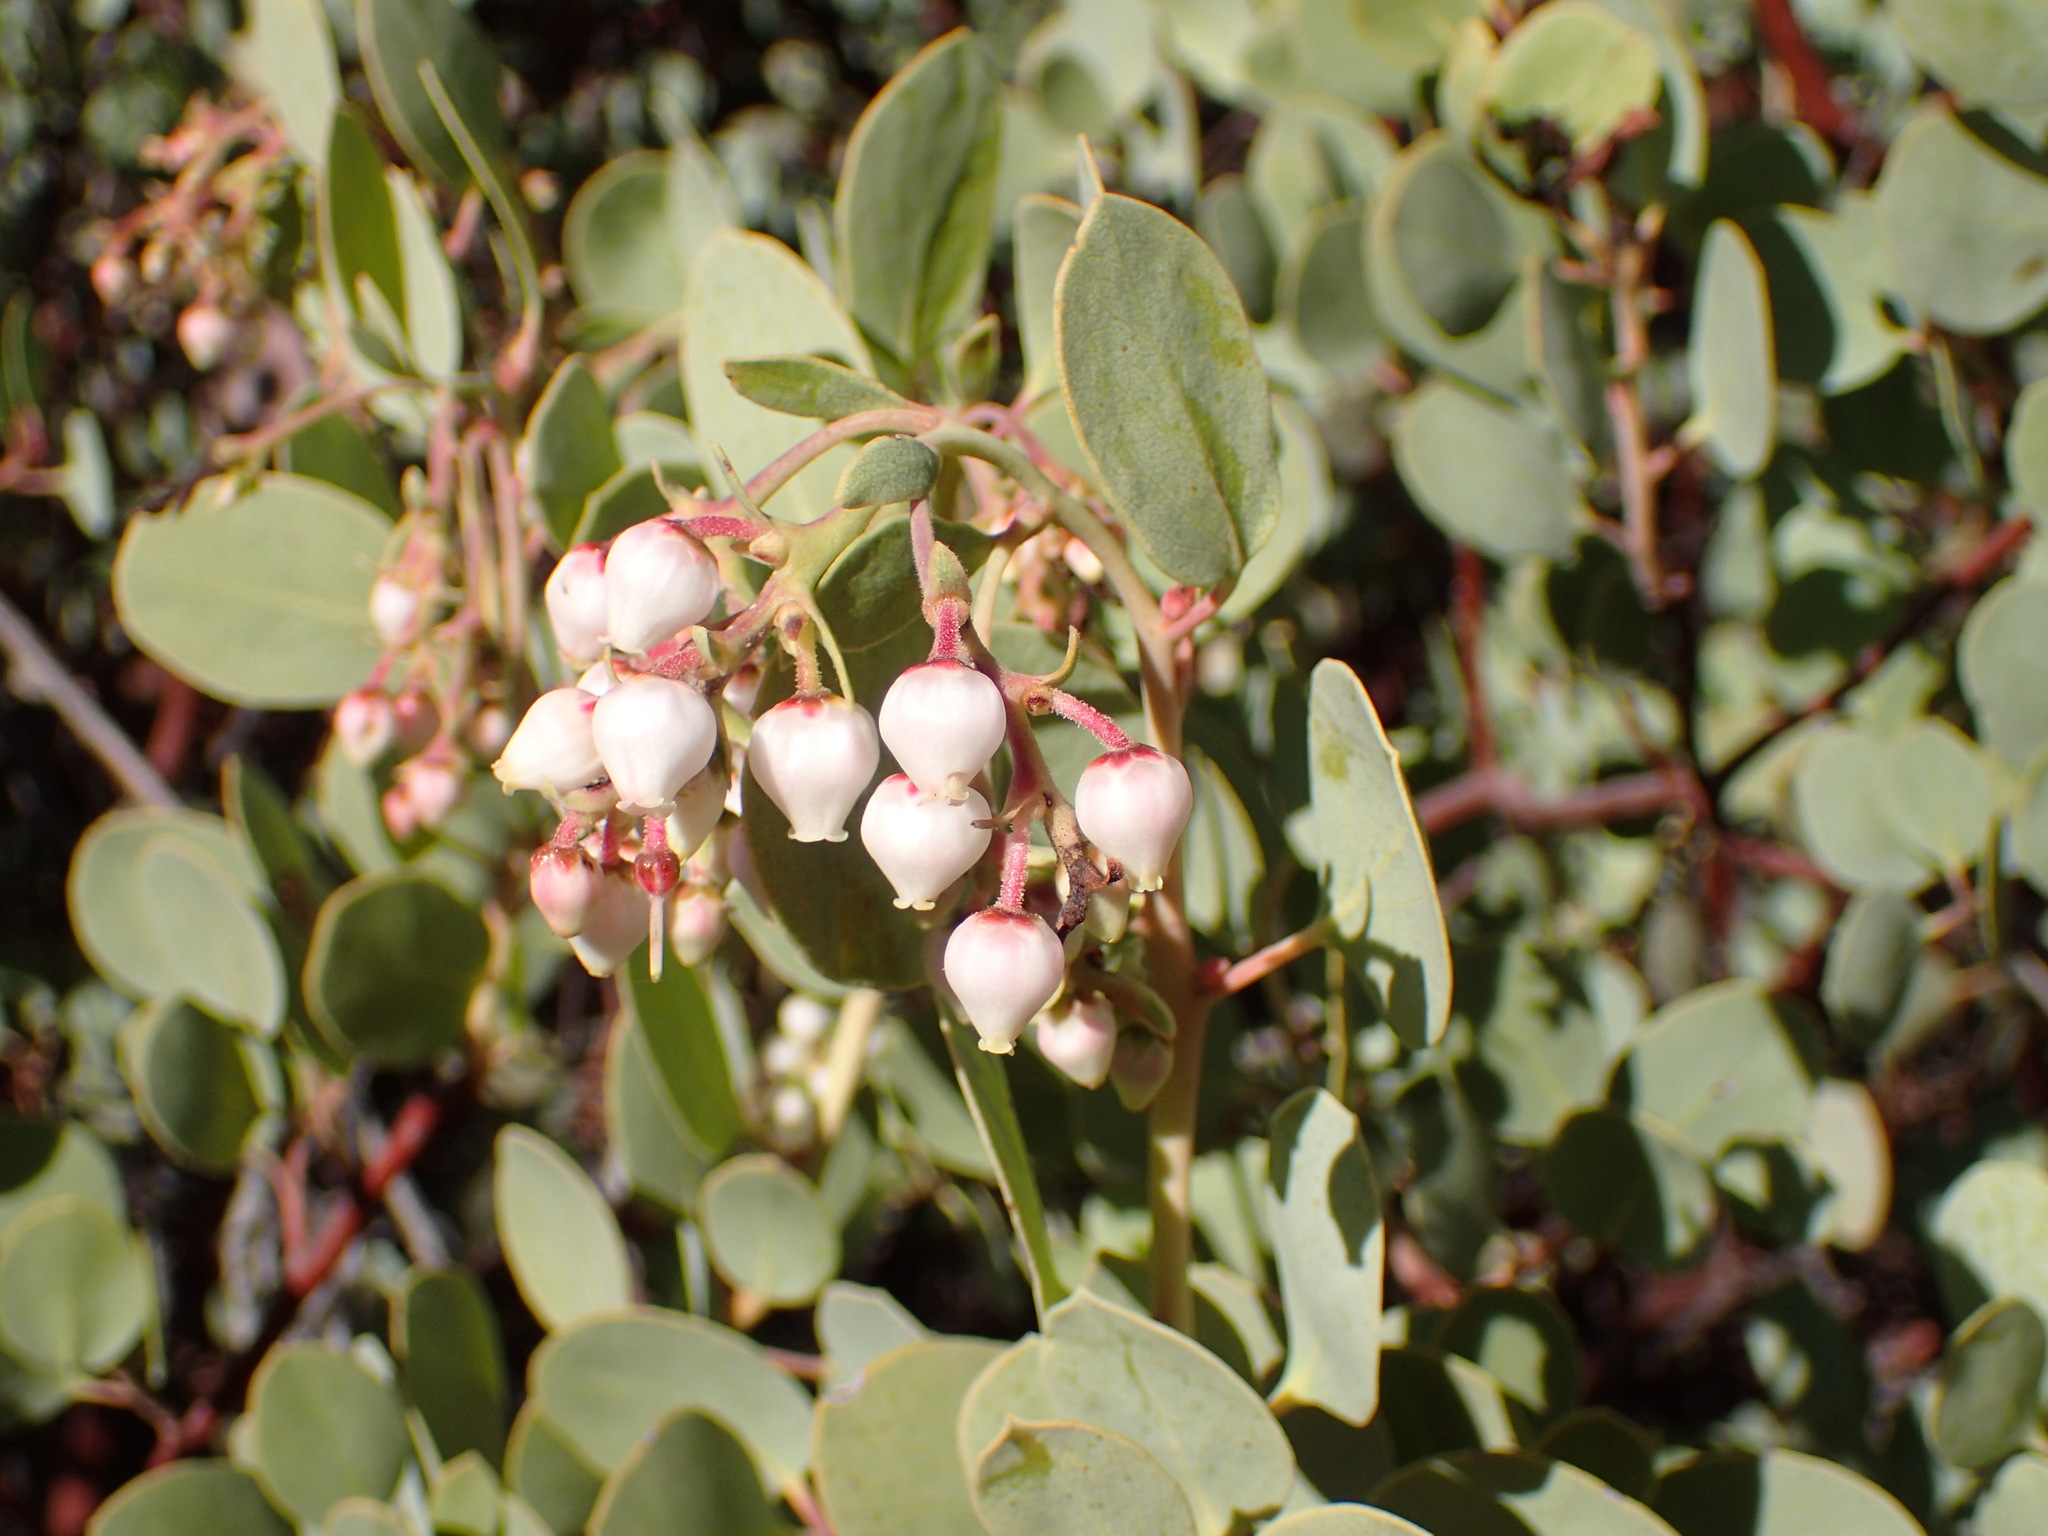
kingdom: Plantae
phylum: Tracheophyta
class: Magnoliopsida
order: Ericales
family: Ericaceae
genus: Arctostaphylos
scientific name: Arctostaphylos glauca
